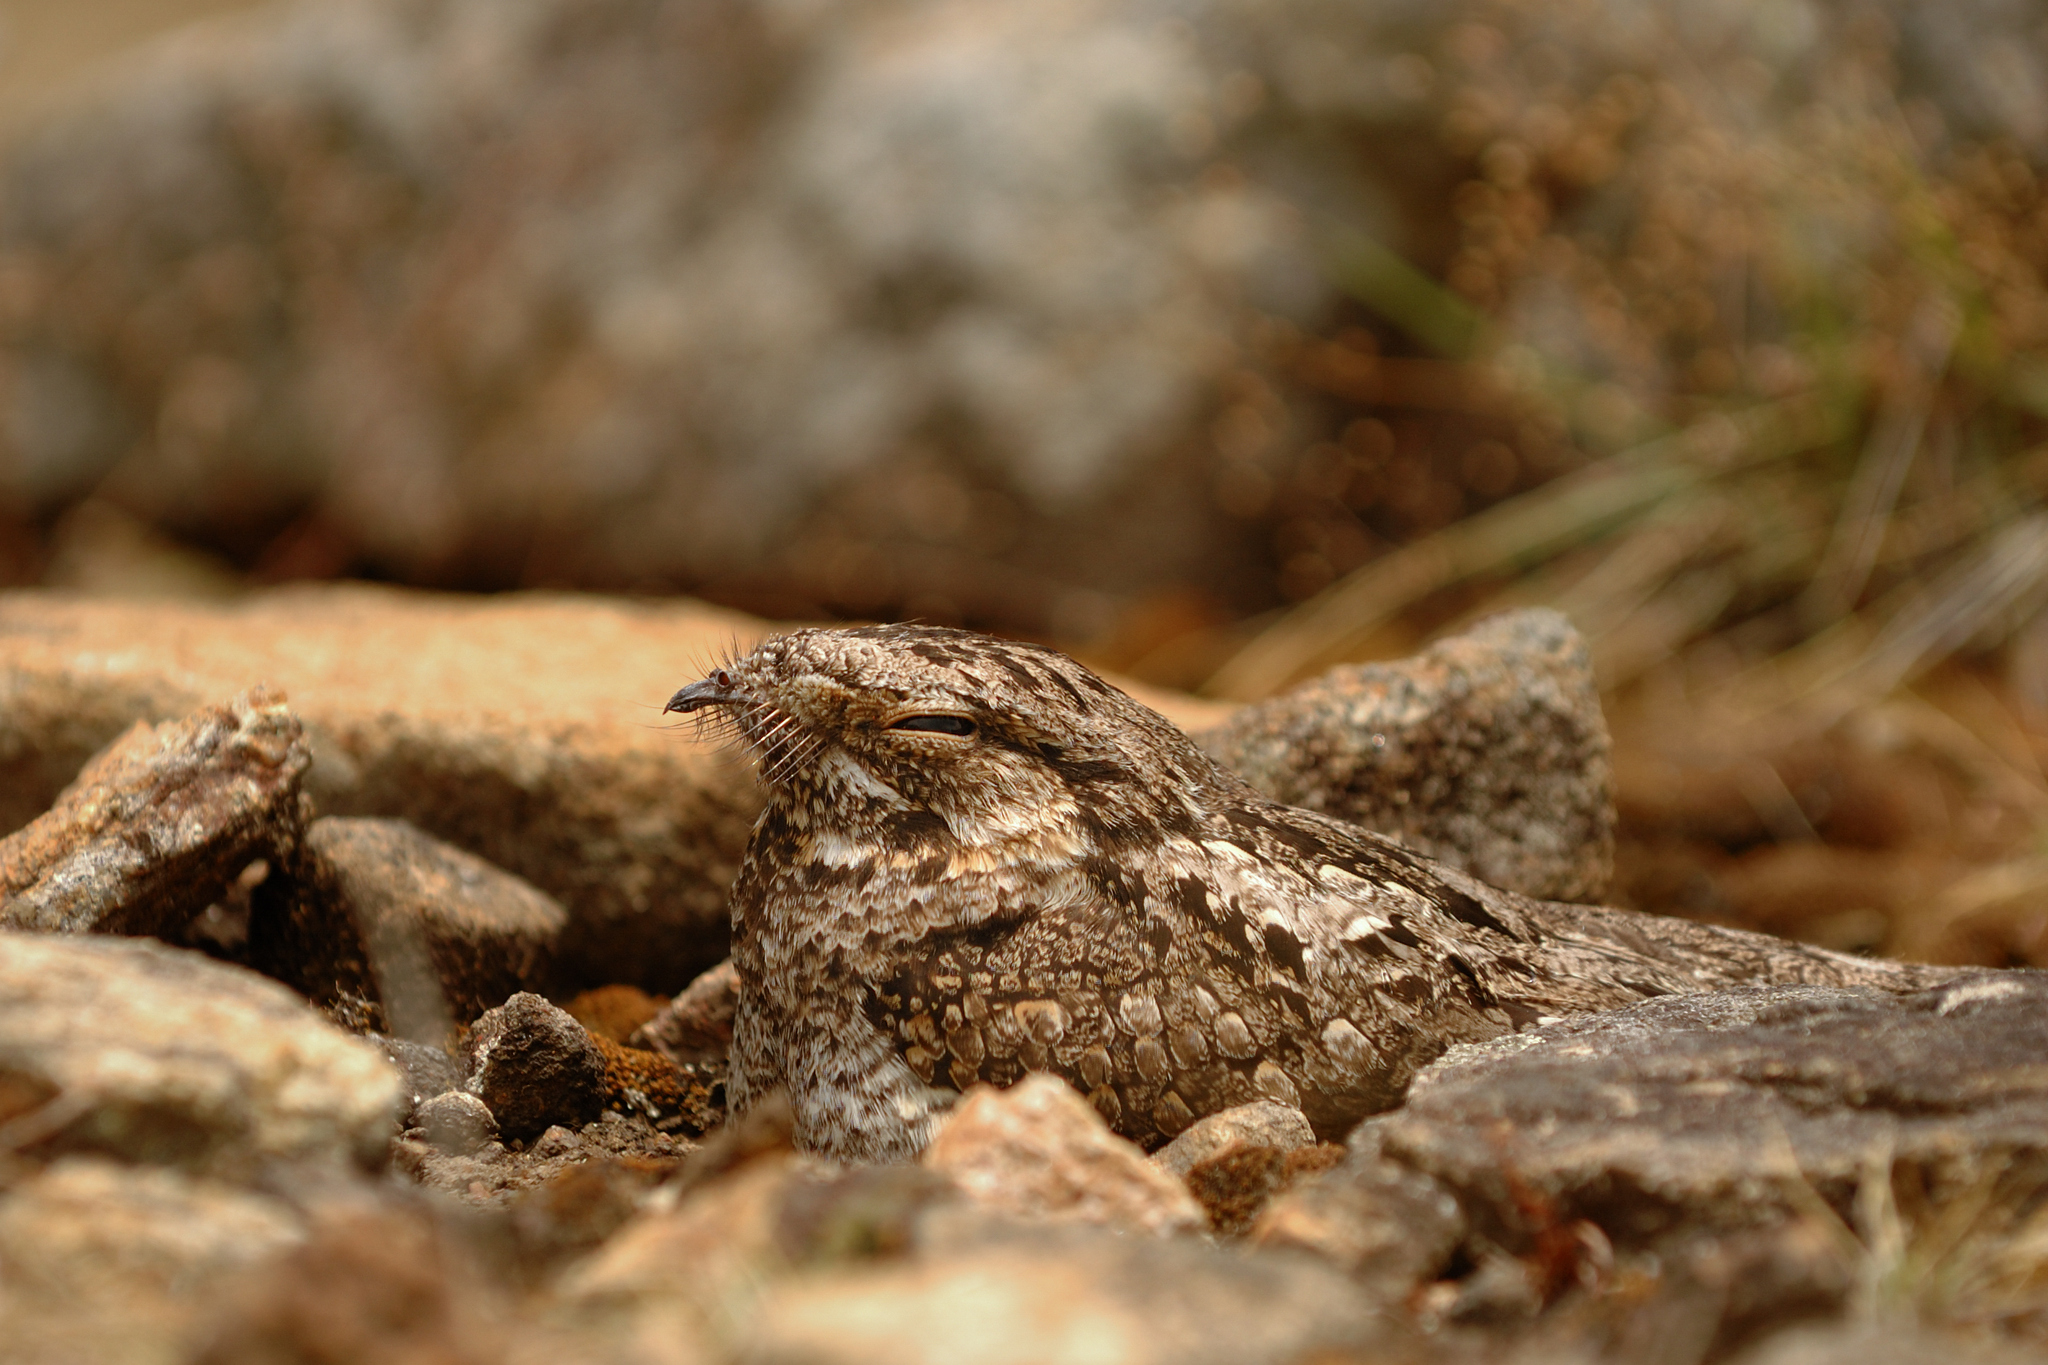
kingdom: Animalia
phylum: Chordata
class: Aves
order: Caprimulgiformes
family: Caprimulgidae
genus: Caprimulgus
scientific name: Caprimulgus jotaka
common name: Grey nightjar
